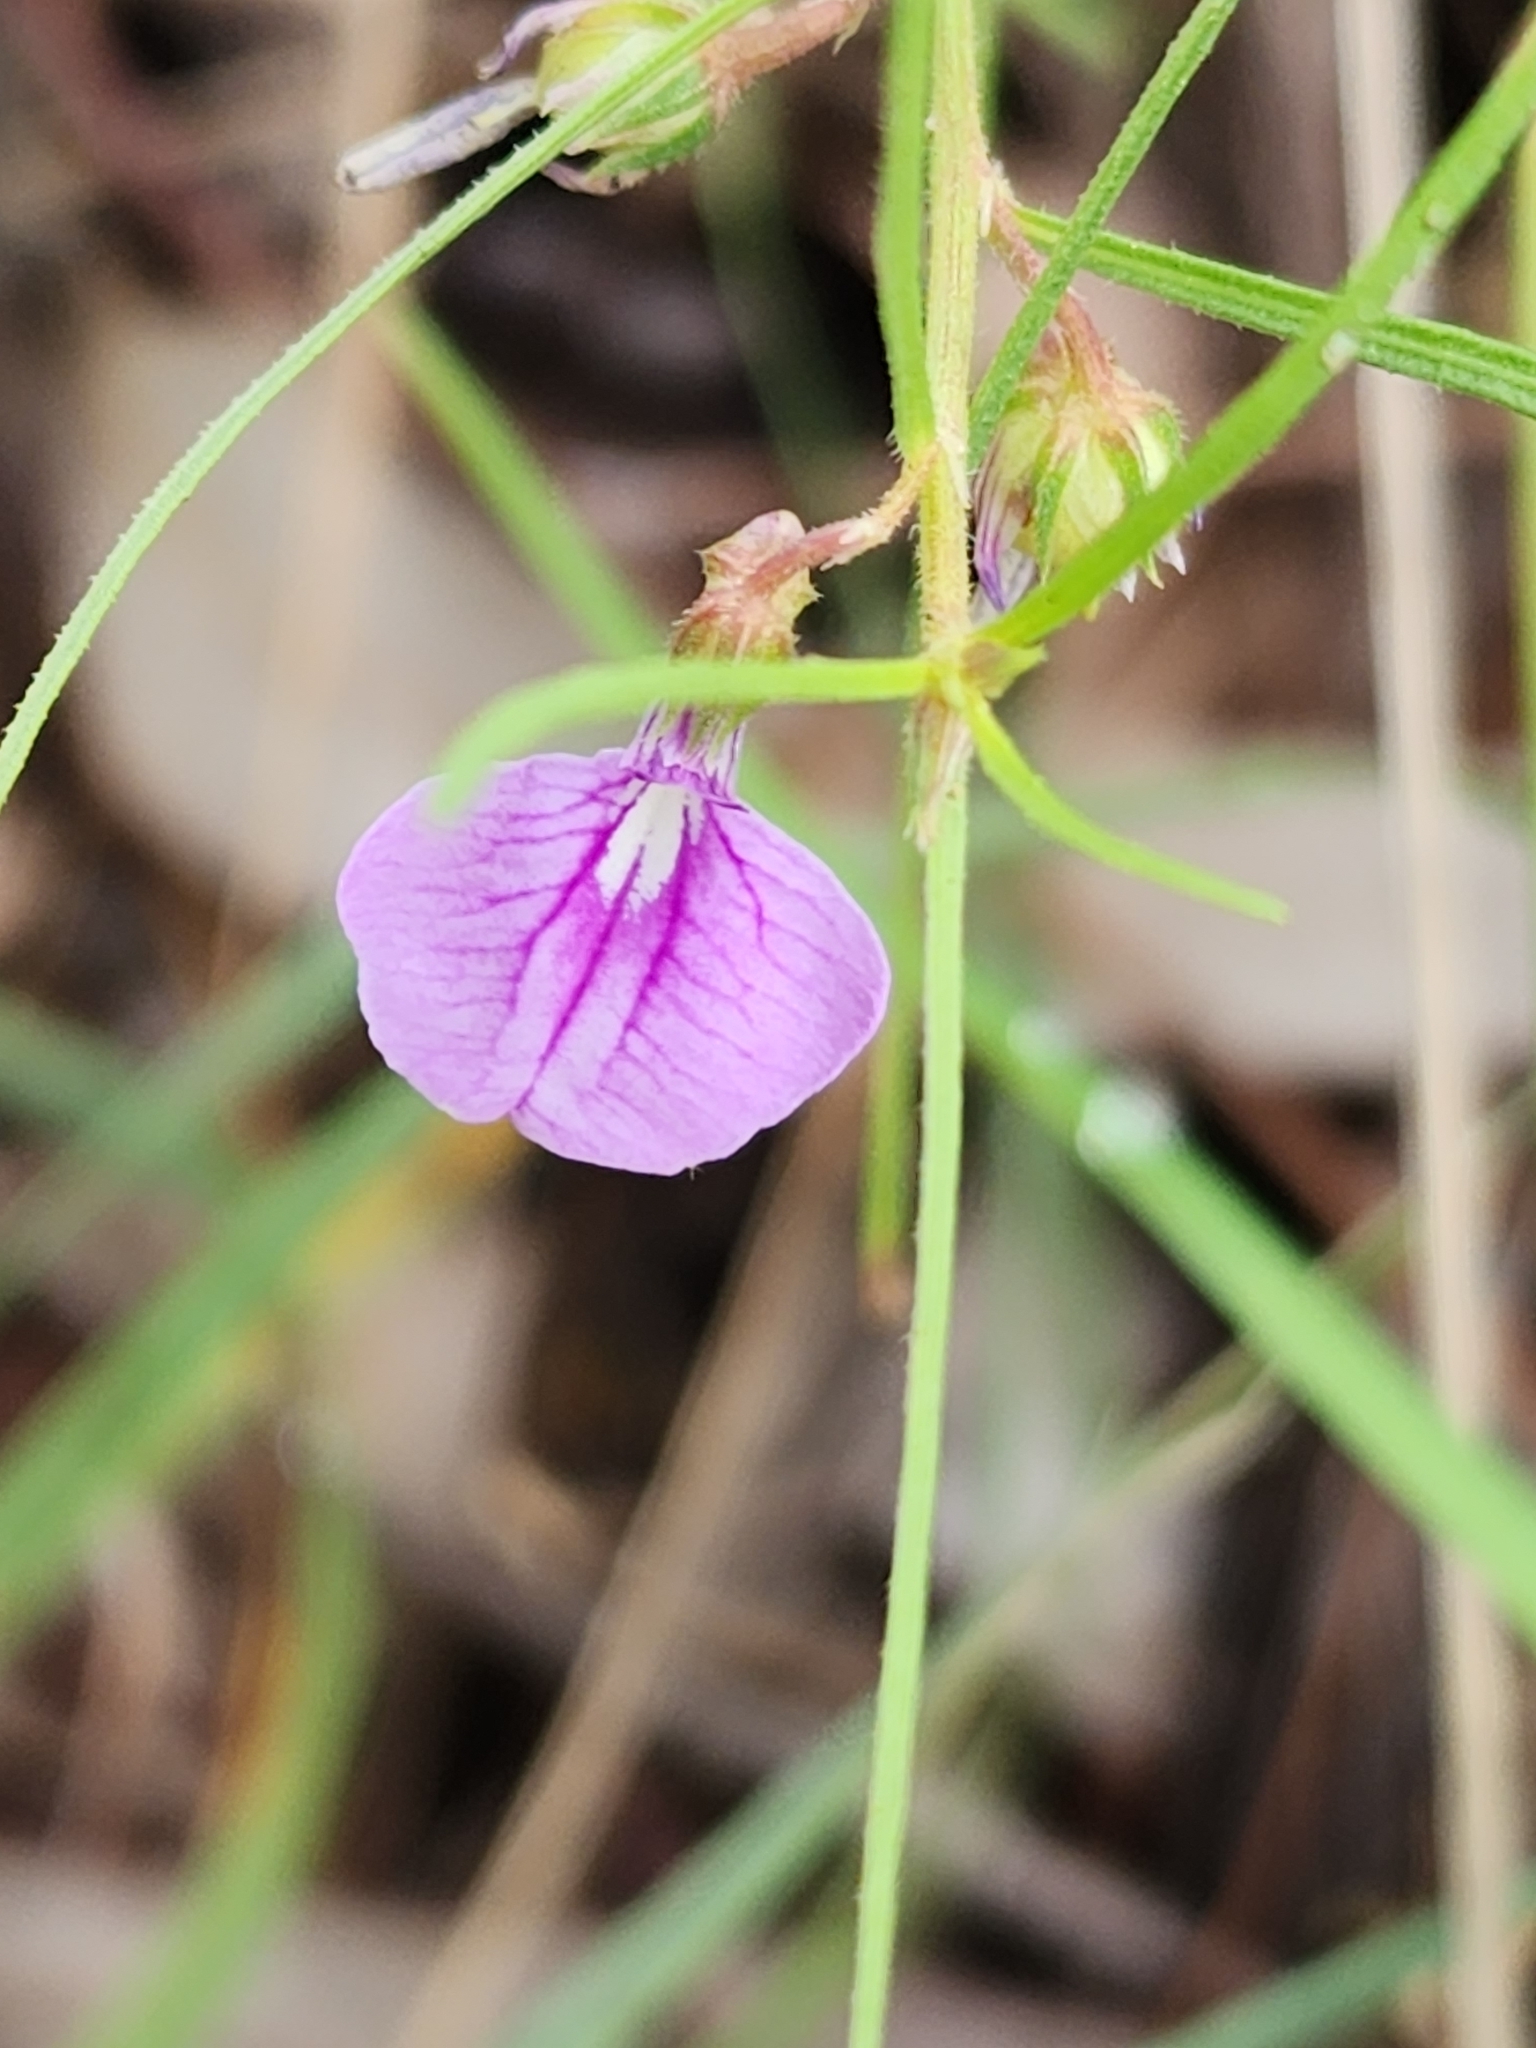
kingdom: Plantae
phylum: Tracheophyta
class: Magnoliopsida
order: Malpighiales
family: Violaceae
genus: Pigea
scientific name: Pigea enneasperma
